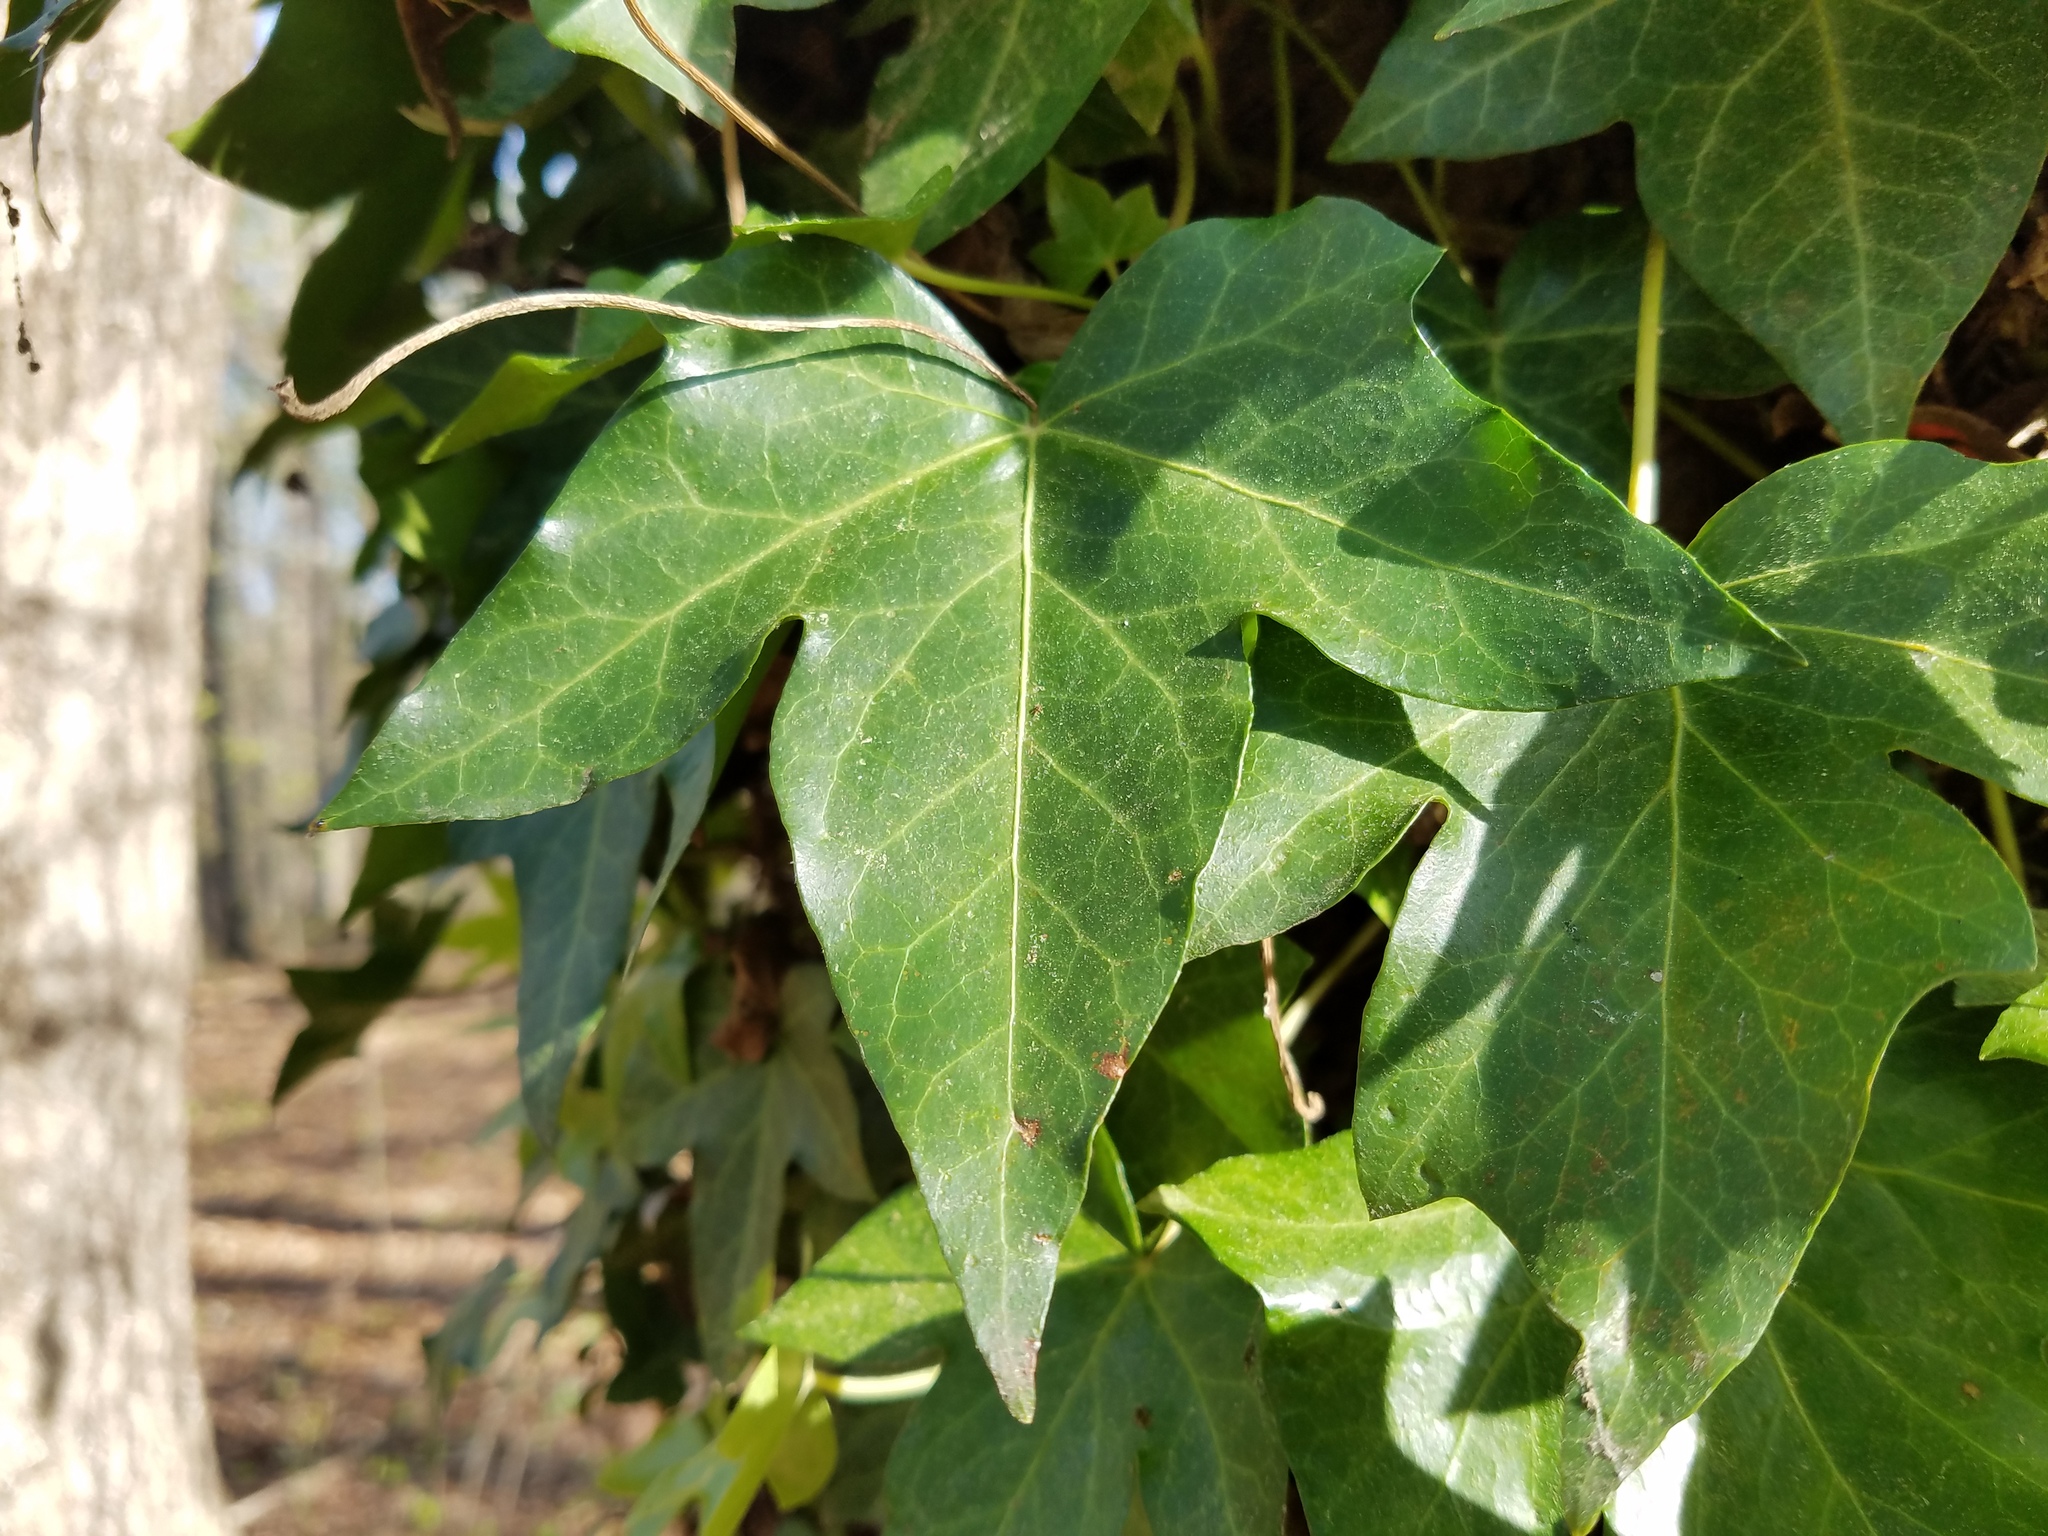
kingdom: Plantae
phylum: Tracheophyta
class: Magnoliopsida
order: Apiales
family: Araliaceae
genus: Hedera
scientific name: Hedera helix
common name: Ivy
